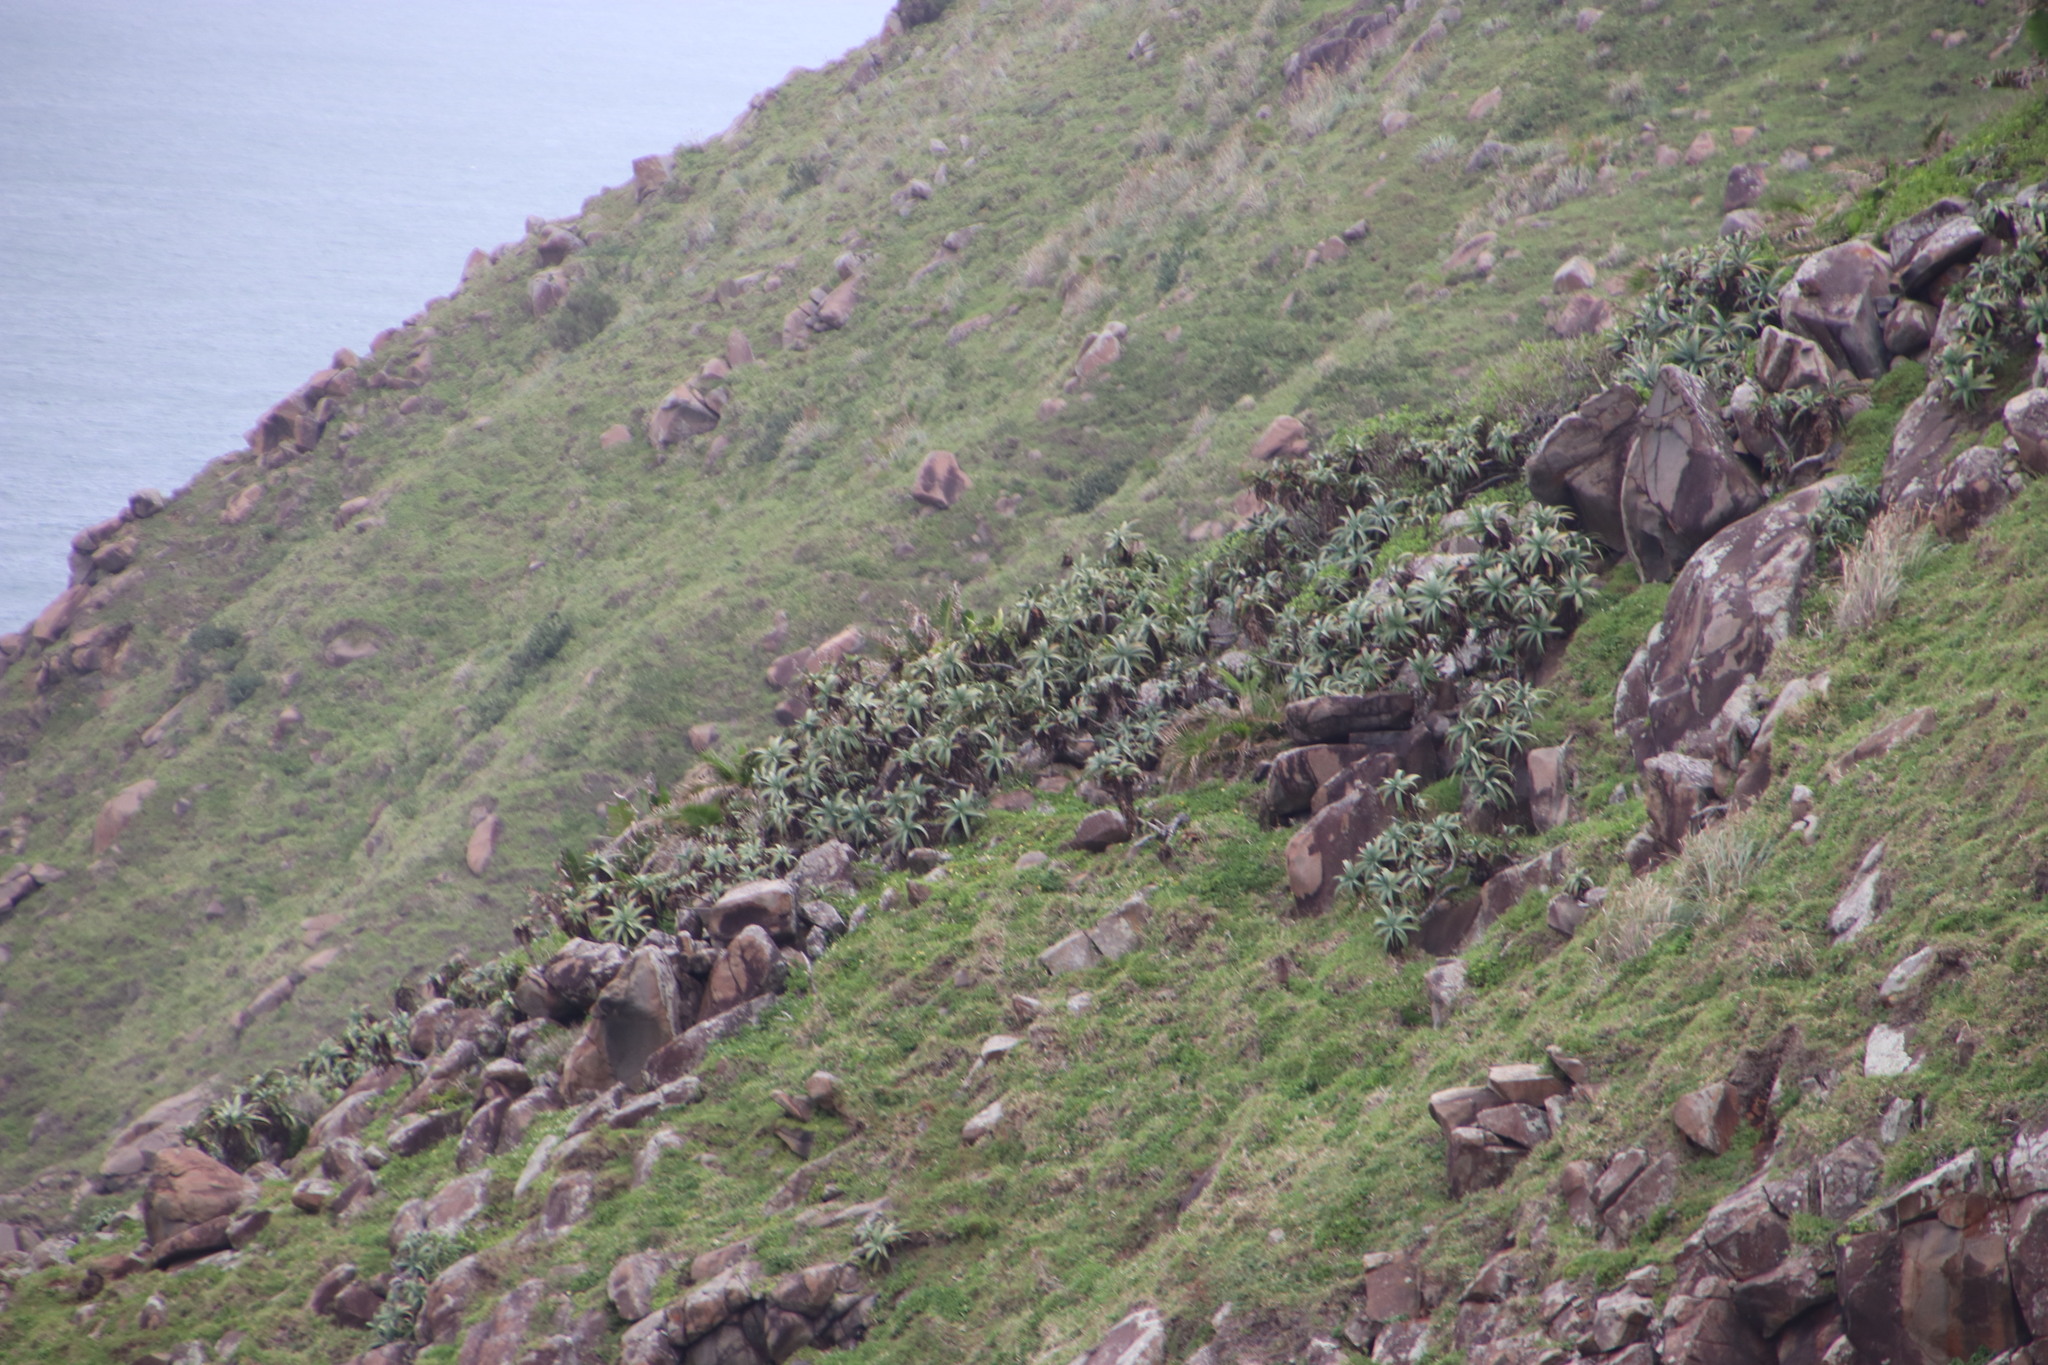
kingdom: Plantae
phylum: Tracheophyta
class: Liliopsida
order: Asparagales
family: Asphodelaceae
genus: Aloe
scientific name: Aloe arborescens
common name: Candelabra aloe
